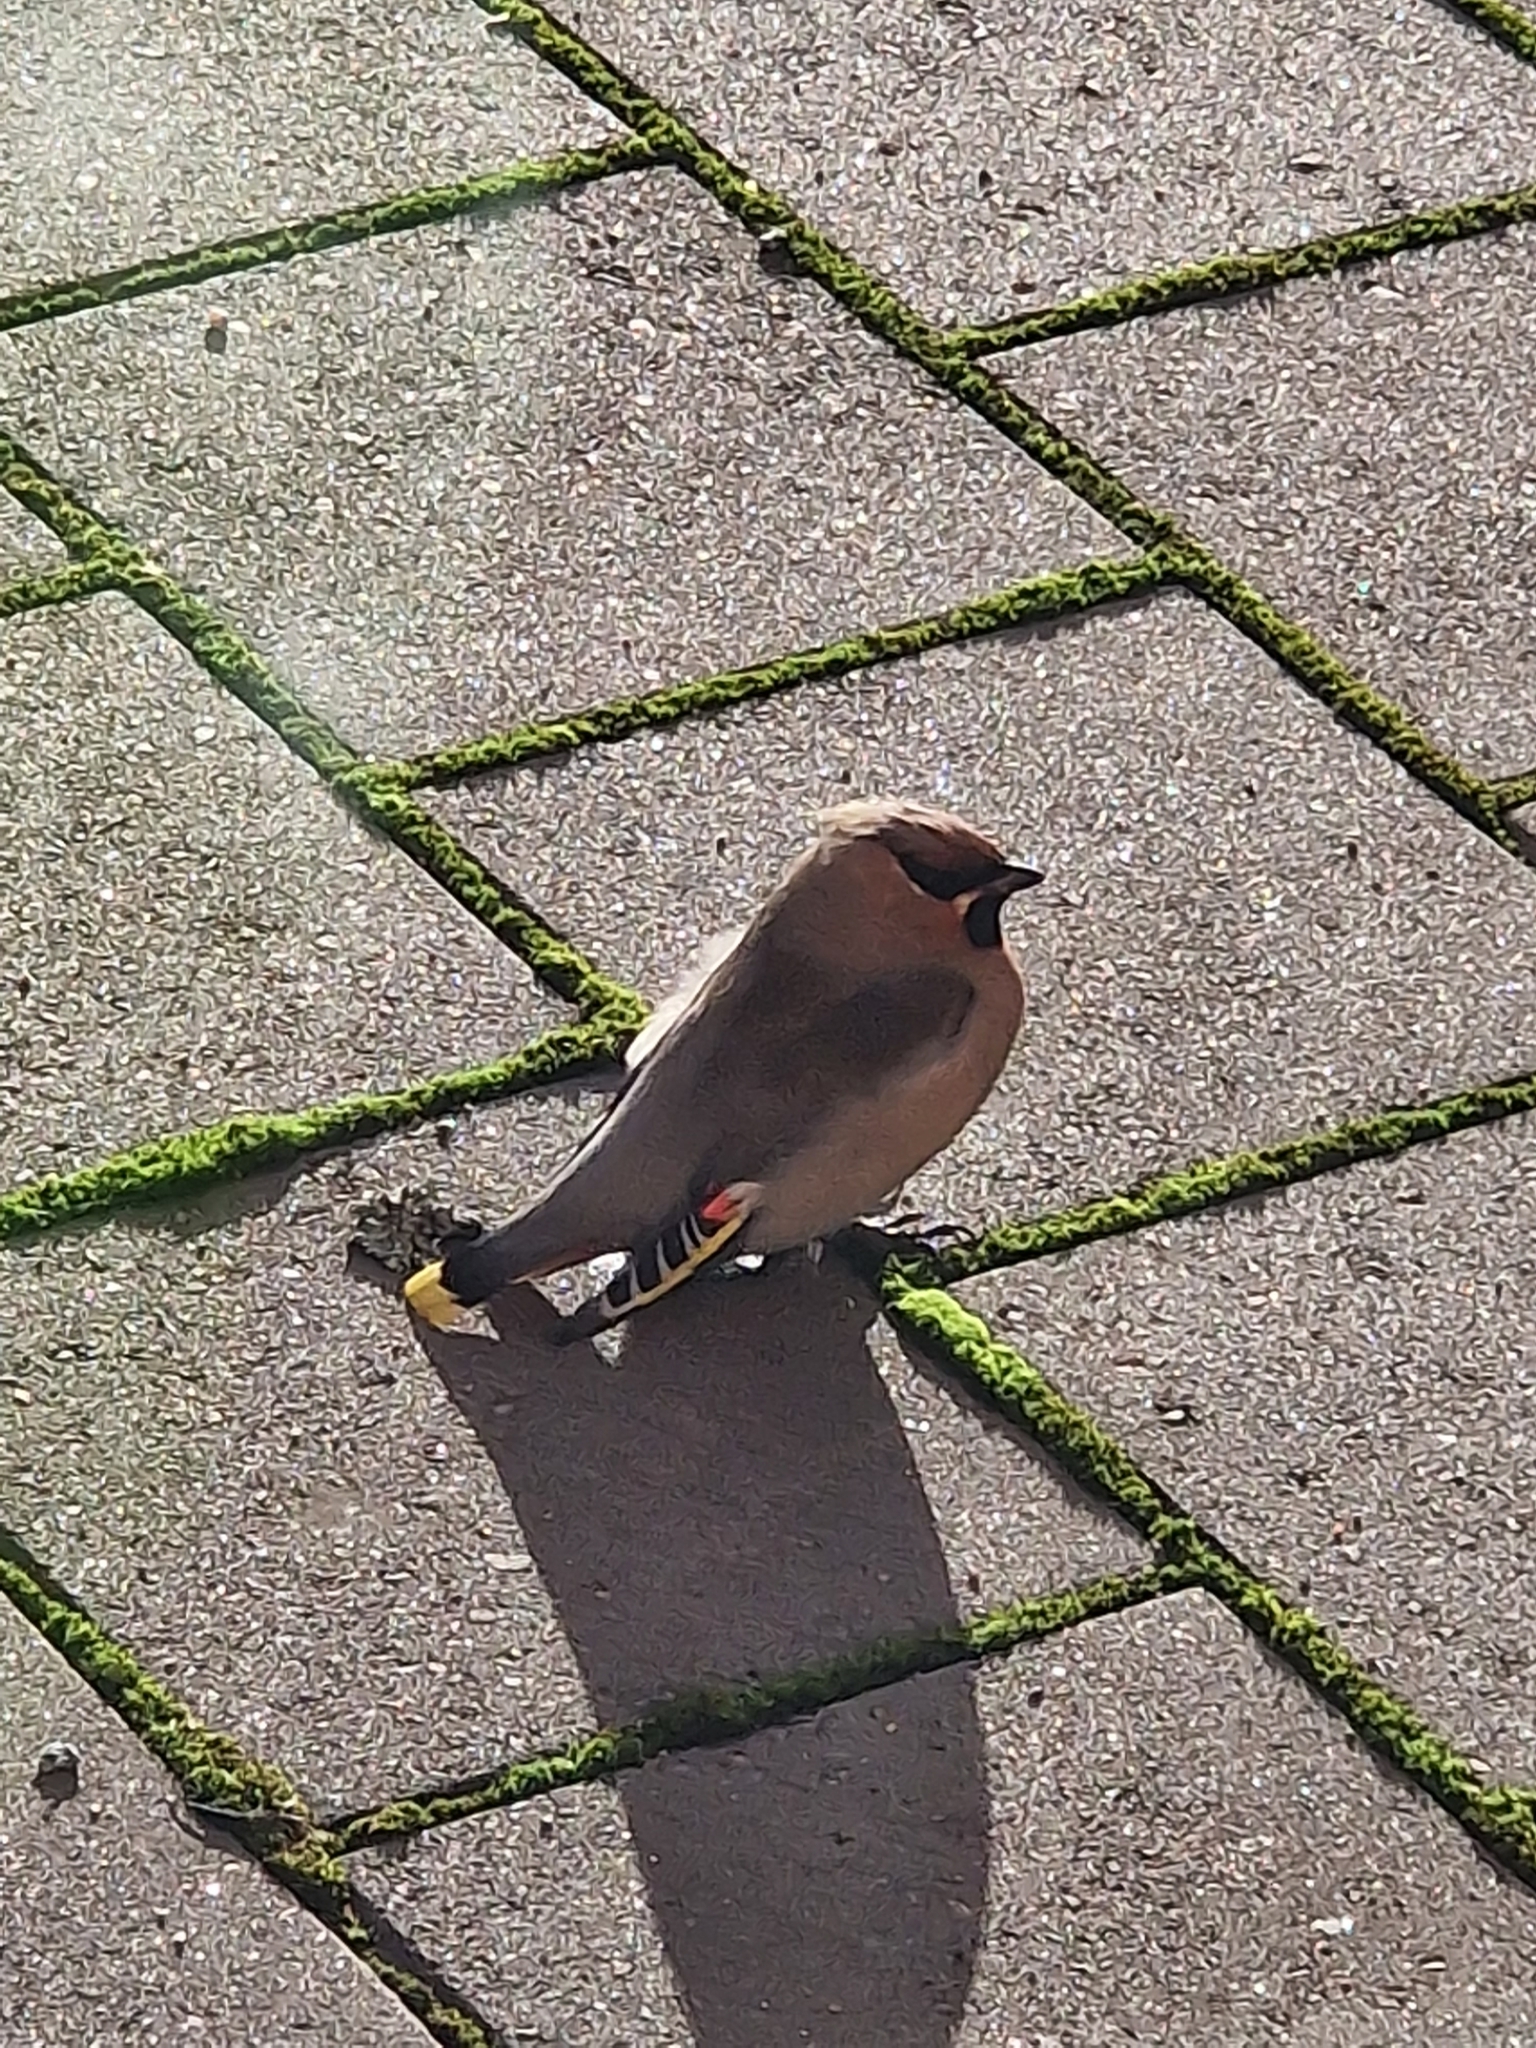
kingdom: Animalia
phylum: Chordata
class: Aves
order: Passeriformes
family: Bombycillidae
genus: Bombycilla
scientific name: Bombycilla garrulus
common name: Bohemian waxwing
